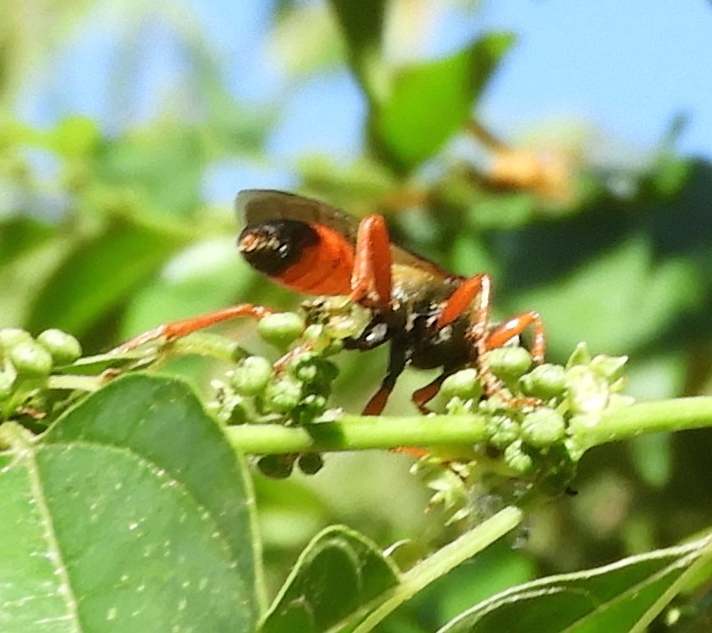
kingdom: Animalia
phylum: Arthropoda
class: Insecta
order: Hymenoptera
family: Sphecidae
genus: Sphex
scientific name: Sphex ichneumoneus
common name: Great golden digger wasp
